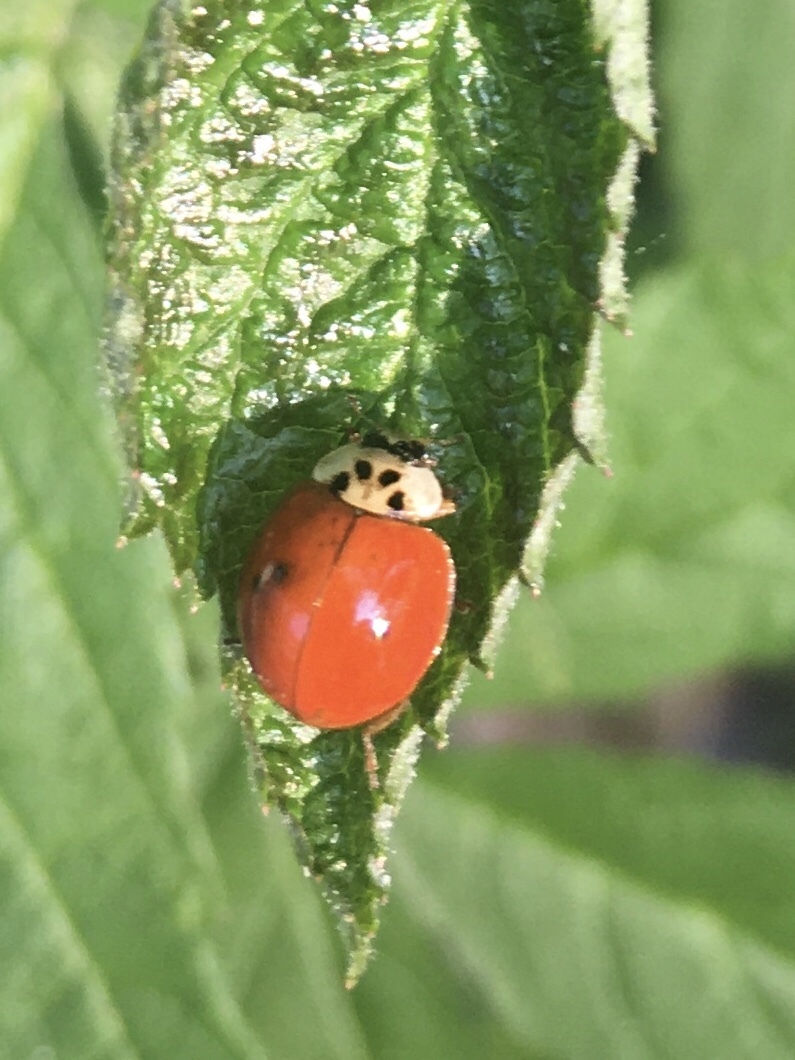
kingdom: Animalia
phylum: Arthropoda
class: Insecta
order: Coleoptera
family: Coccinellidae
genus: Harmonia
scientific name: Harmonia axyridis
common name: Harlequin ladybird
